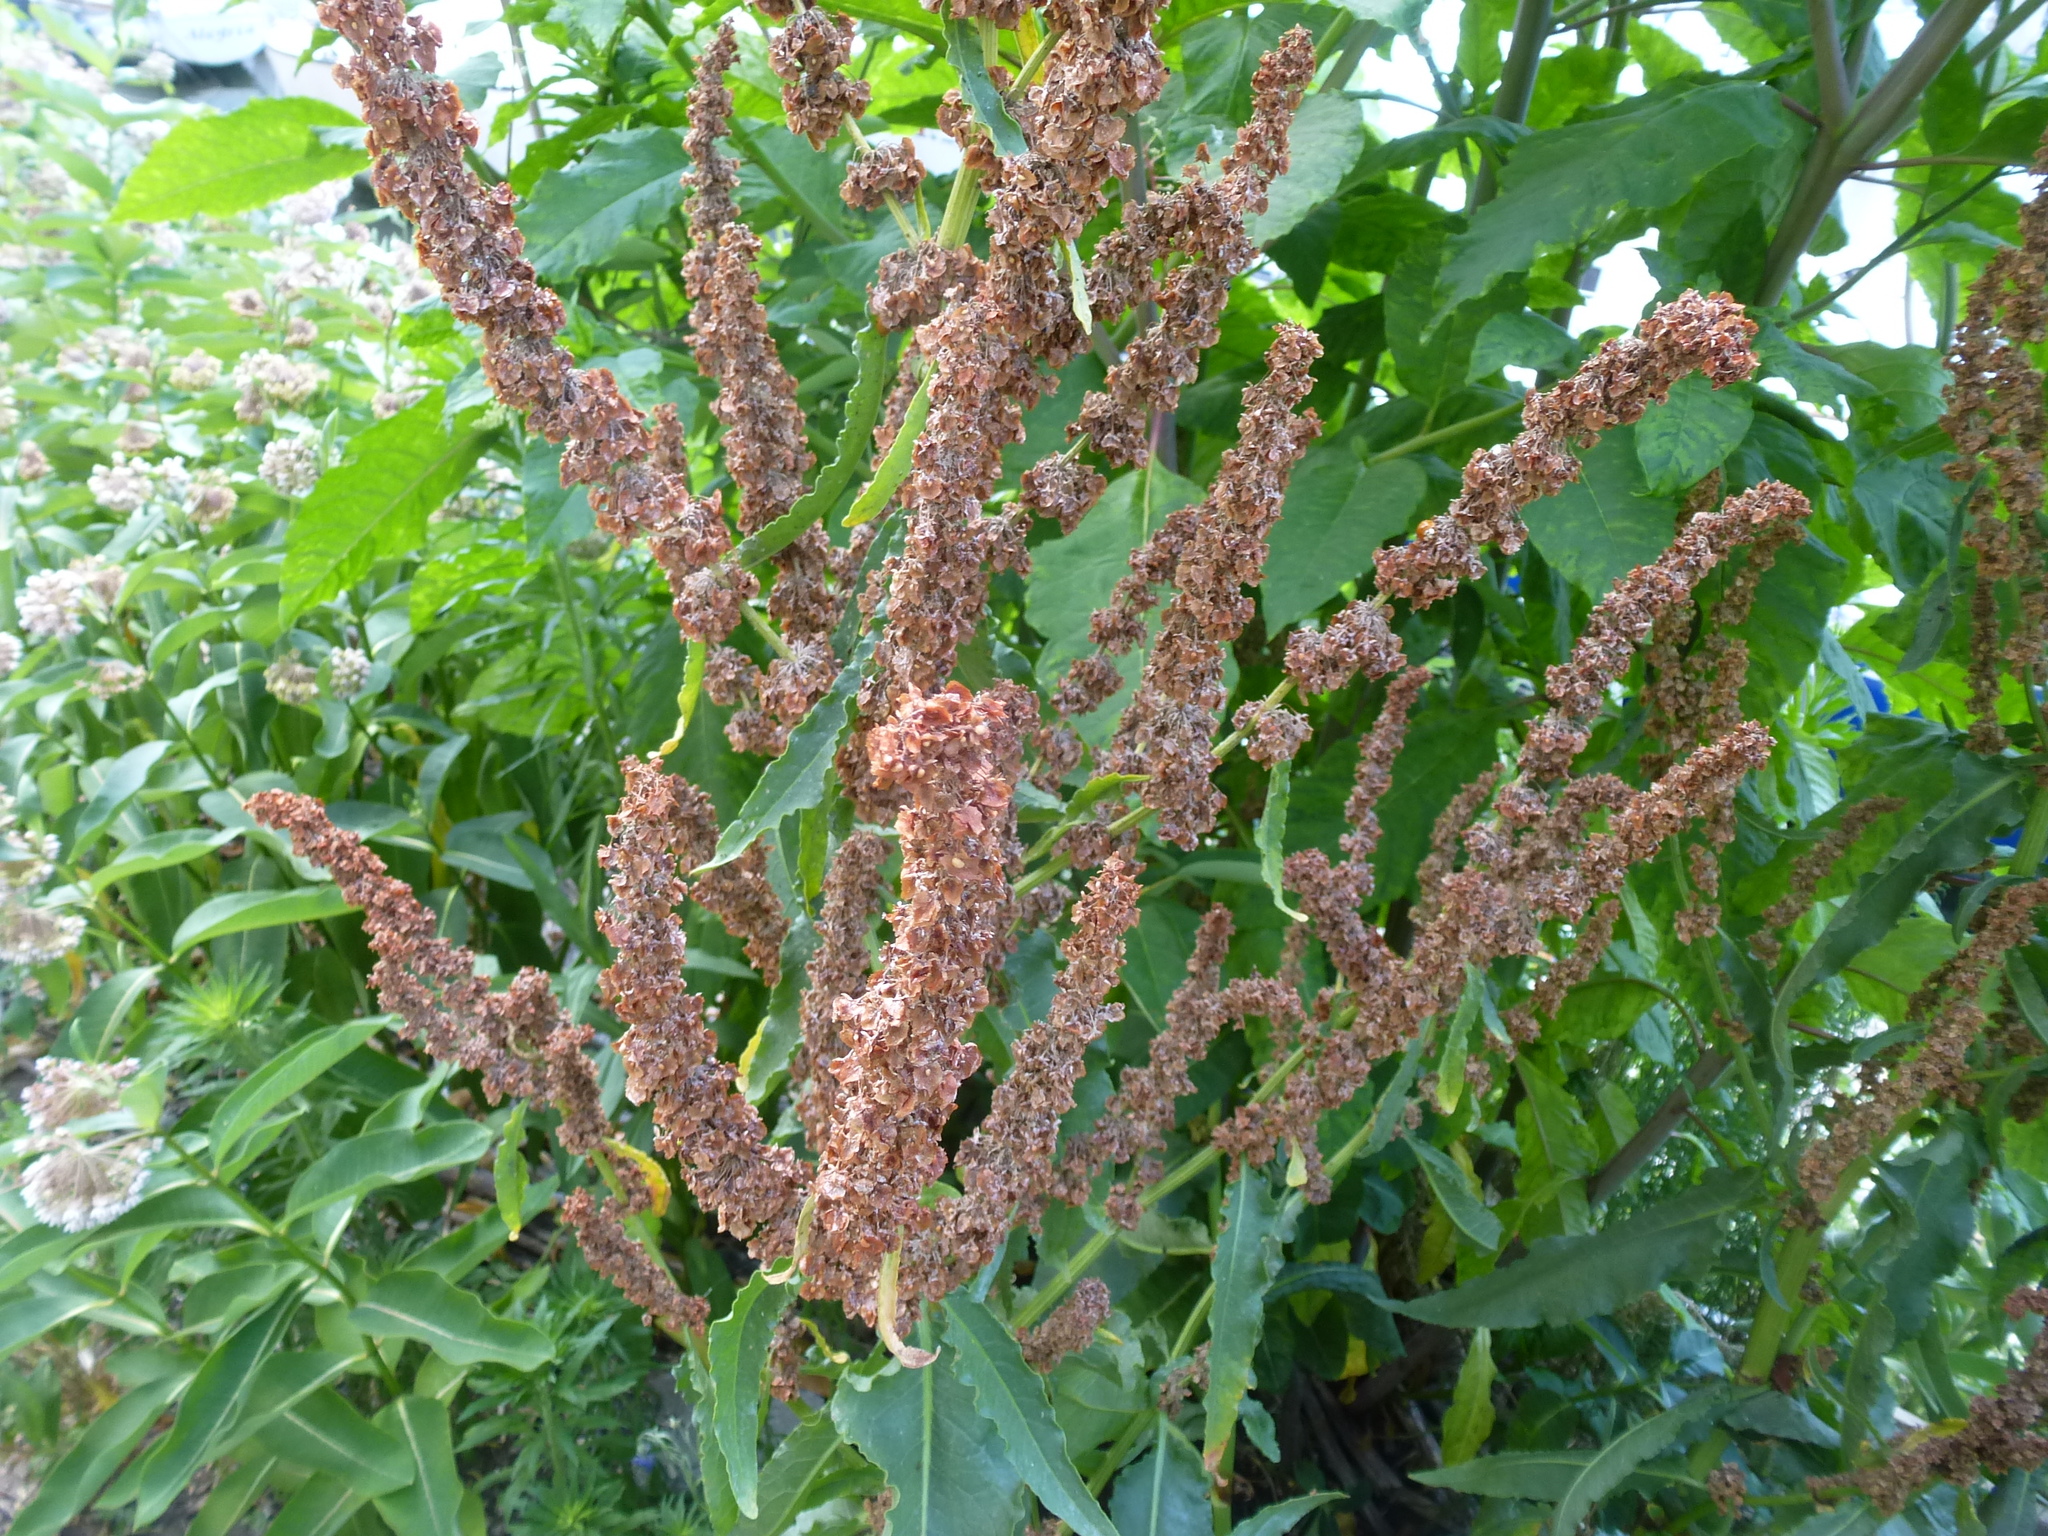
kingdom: Plantae
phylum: Tracheophyta
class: Magnoliopsida
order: Caryophyllales
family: Polygonaceae
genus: Rumex
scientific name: Rumex crispus
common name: Curled dock
